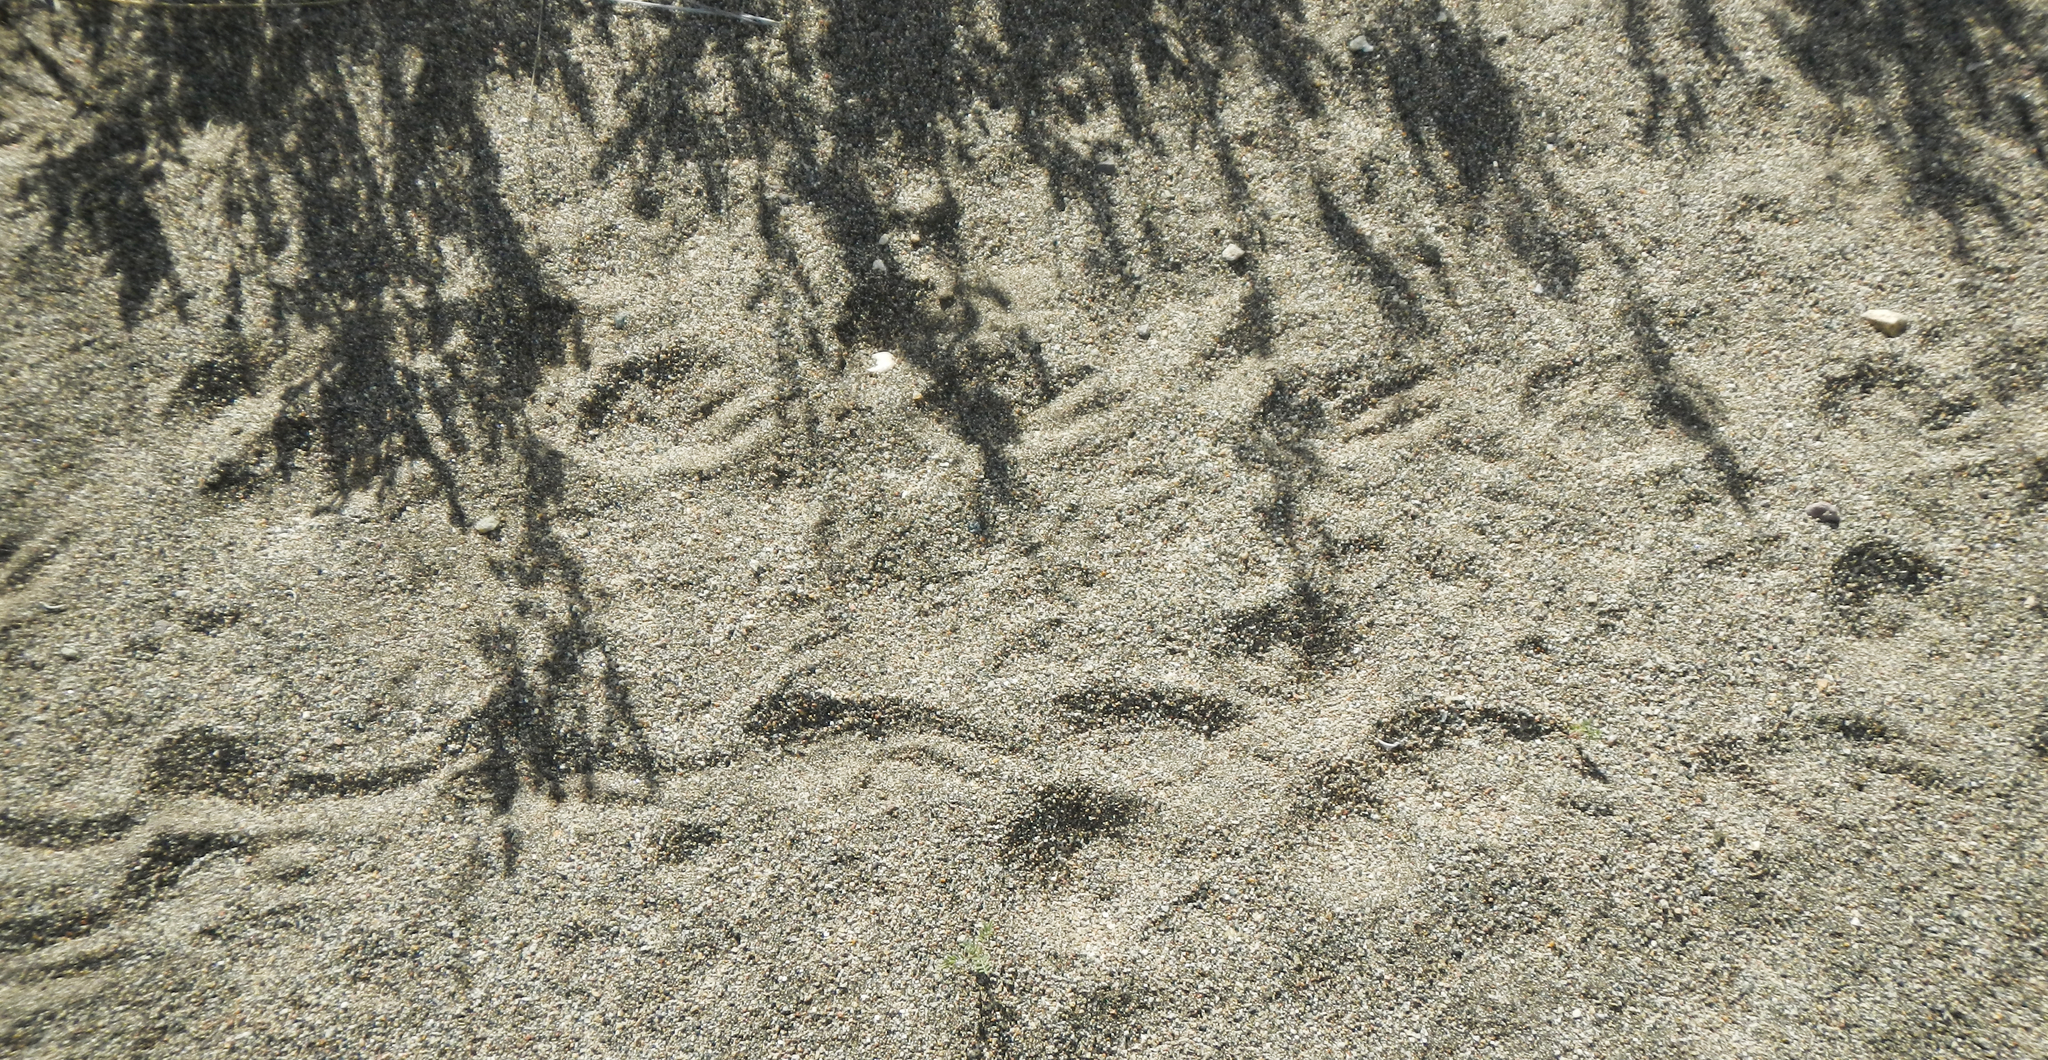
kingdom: Animalia
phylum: Chordata
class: Testudines
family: Testudinidae
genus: Gopherus
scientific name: Gopherus agassizii
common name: Mojave desert tortoise
